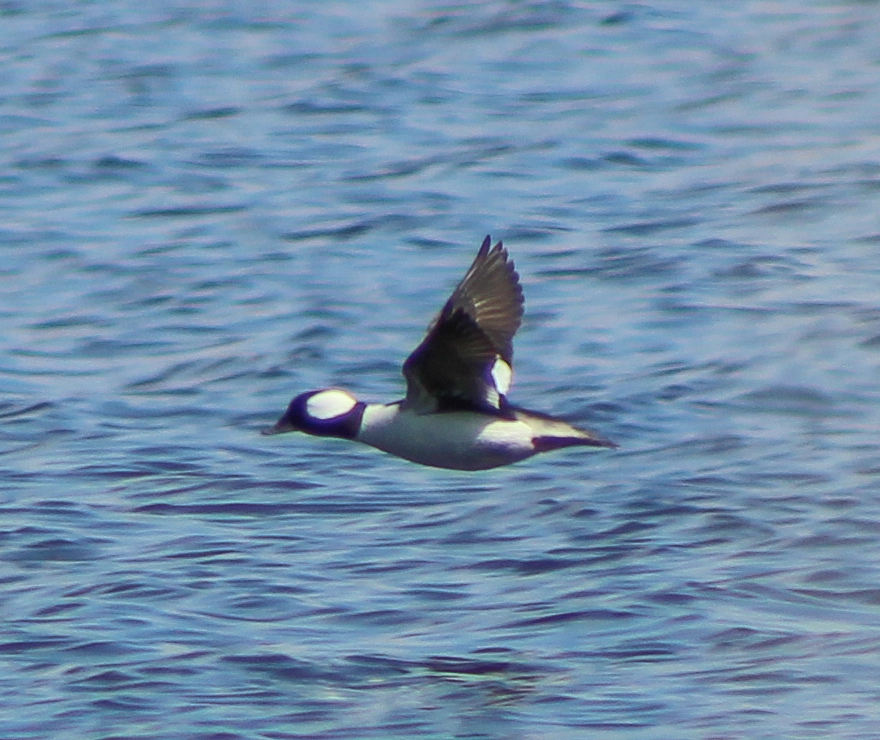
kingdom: Animalia
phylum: Chordata
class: Aves
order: Anseriformes
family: Anatidae
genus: Bucephala
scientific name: Bucephala albeola
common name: Bufflehead
